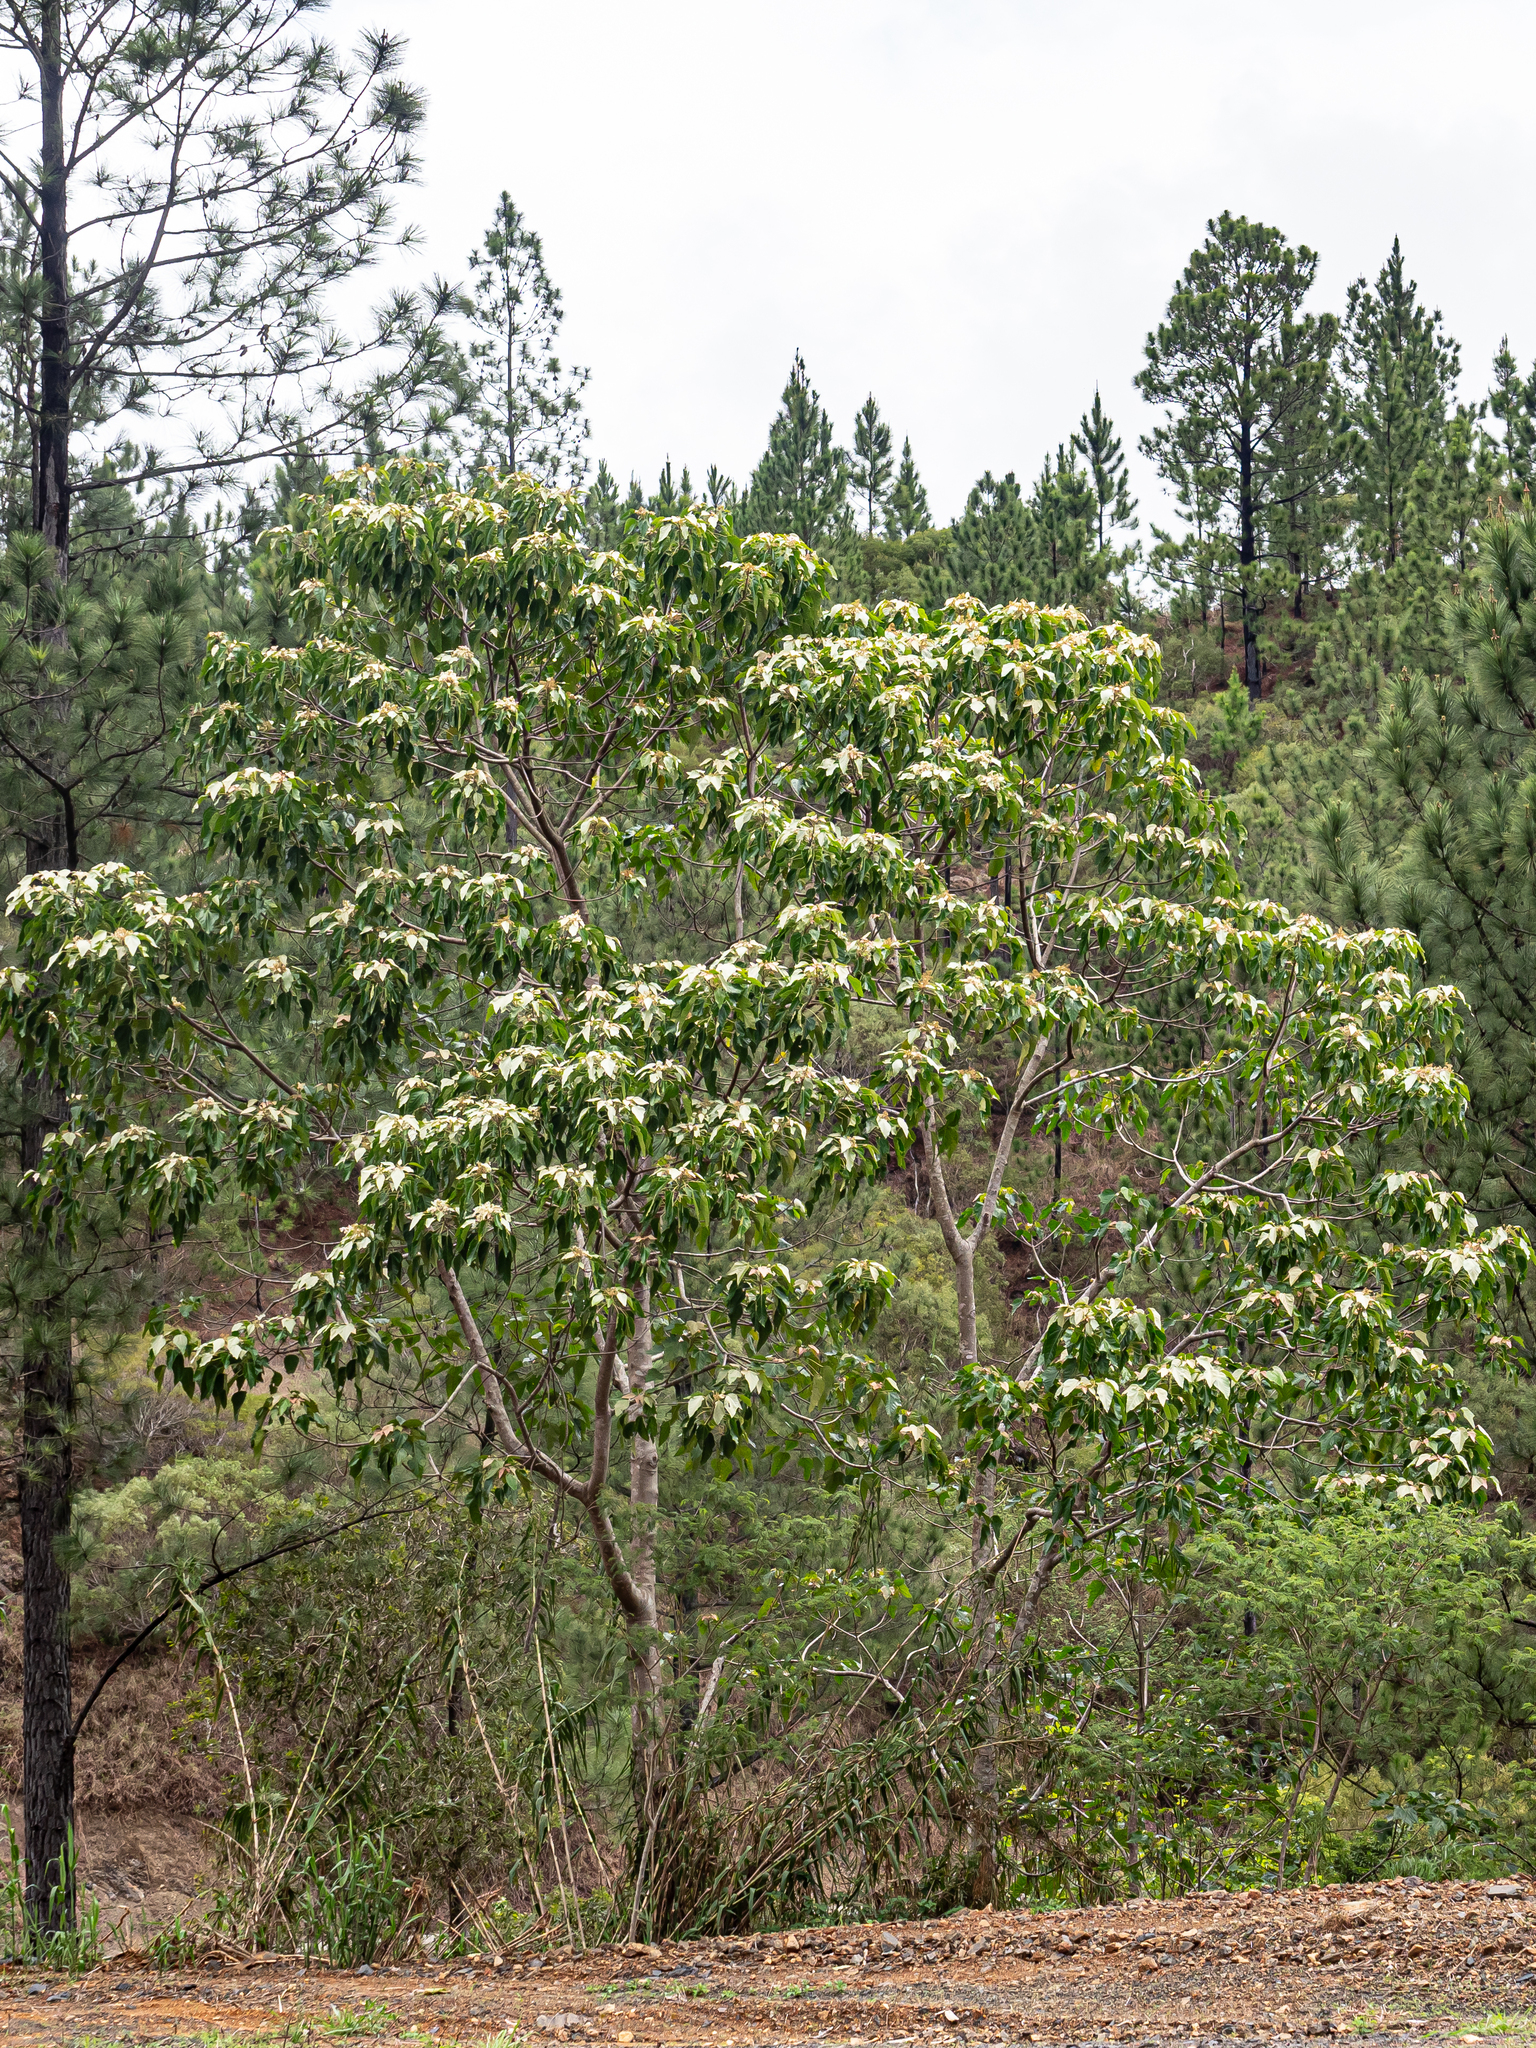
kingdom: Plantae
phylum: Tracheophyta
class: Magnoliopsida
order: Malpighiales
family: Euphorbiaceae
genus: Aleurites
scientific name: Aleurites moluccanus
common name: Candlenut tree
